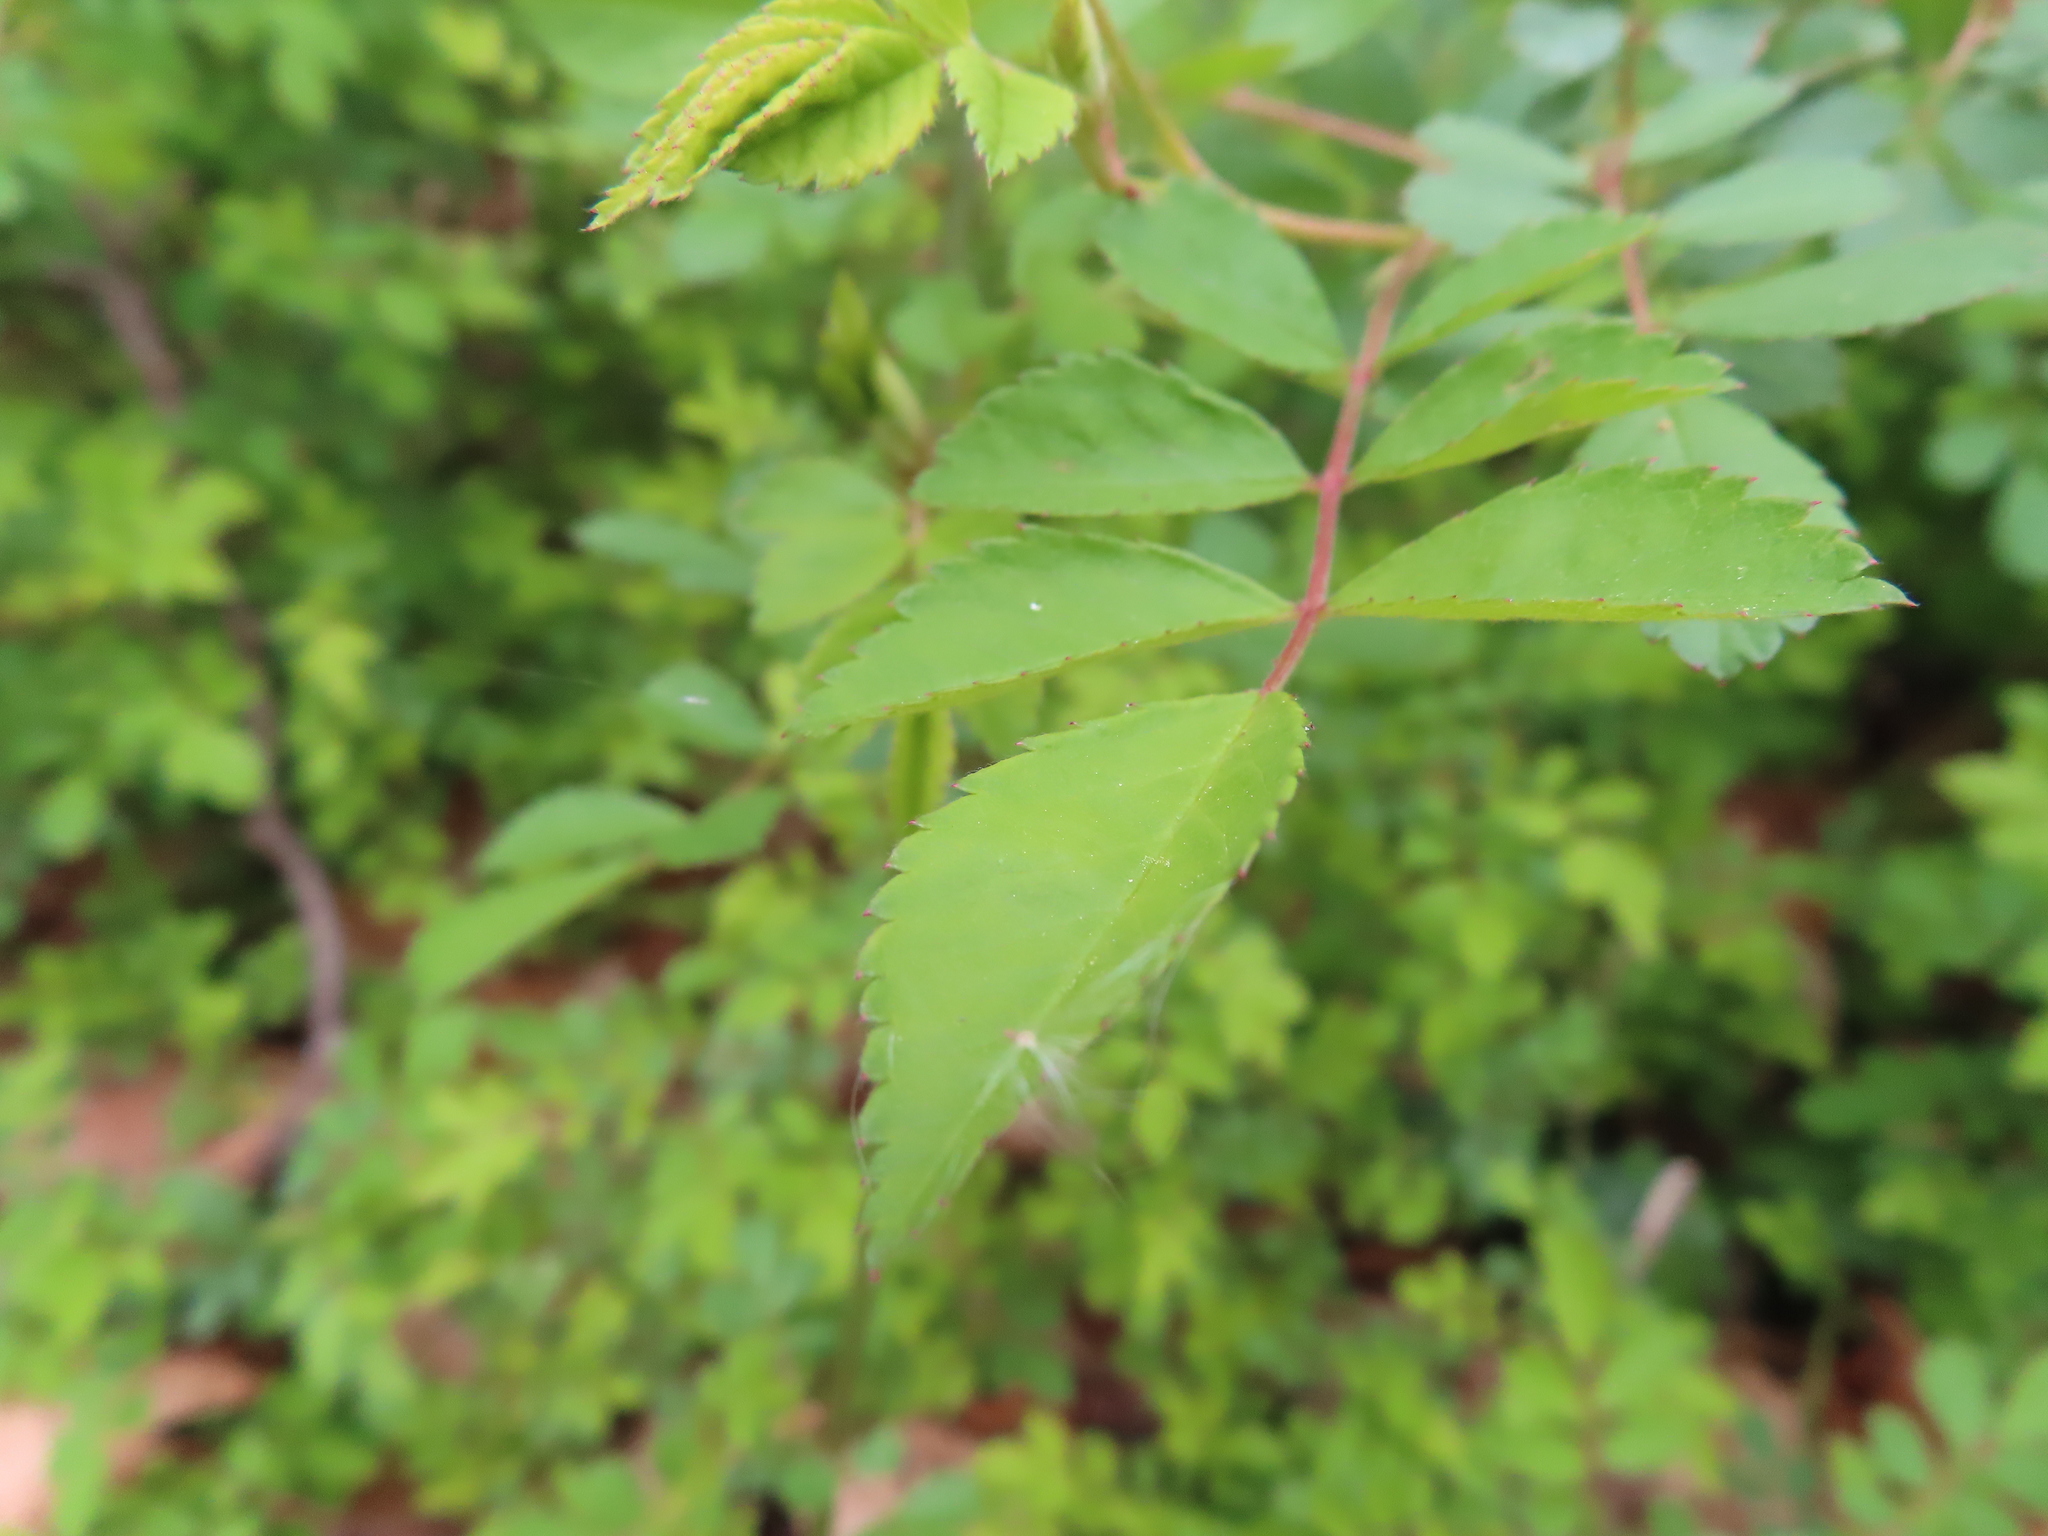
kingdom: Plantae
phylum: Tracheophyta
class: Magnoliopsida
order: Rosales
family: Rosaceae
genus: Rosa
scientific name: Rosa multiflora
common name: Multiflora rose
